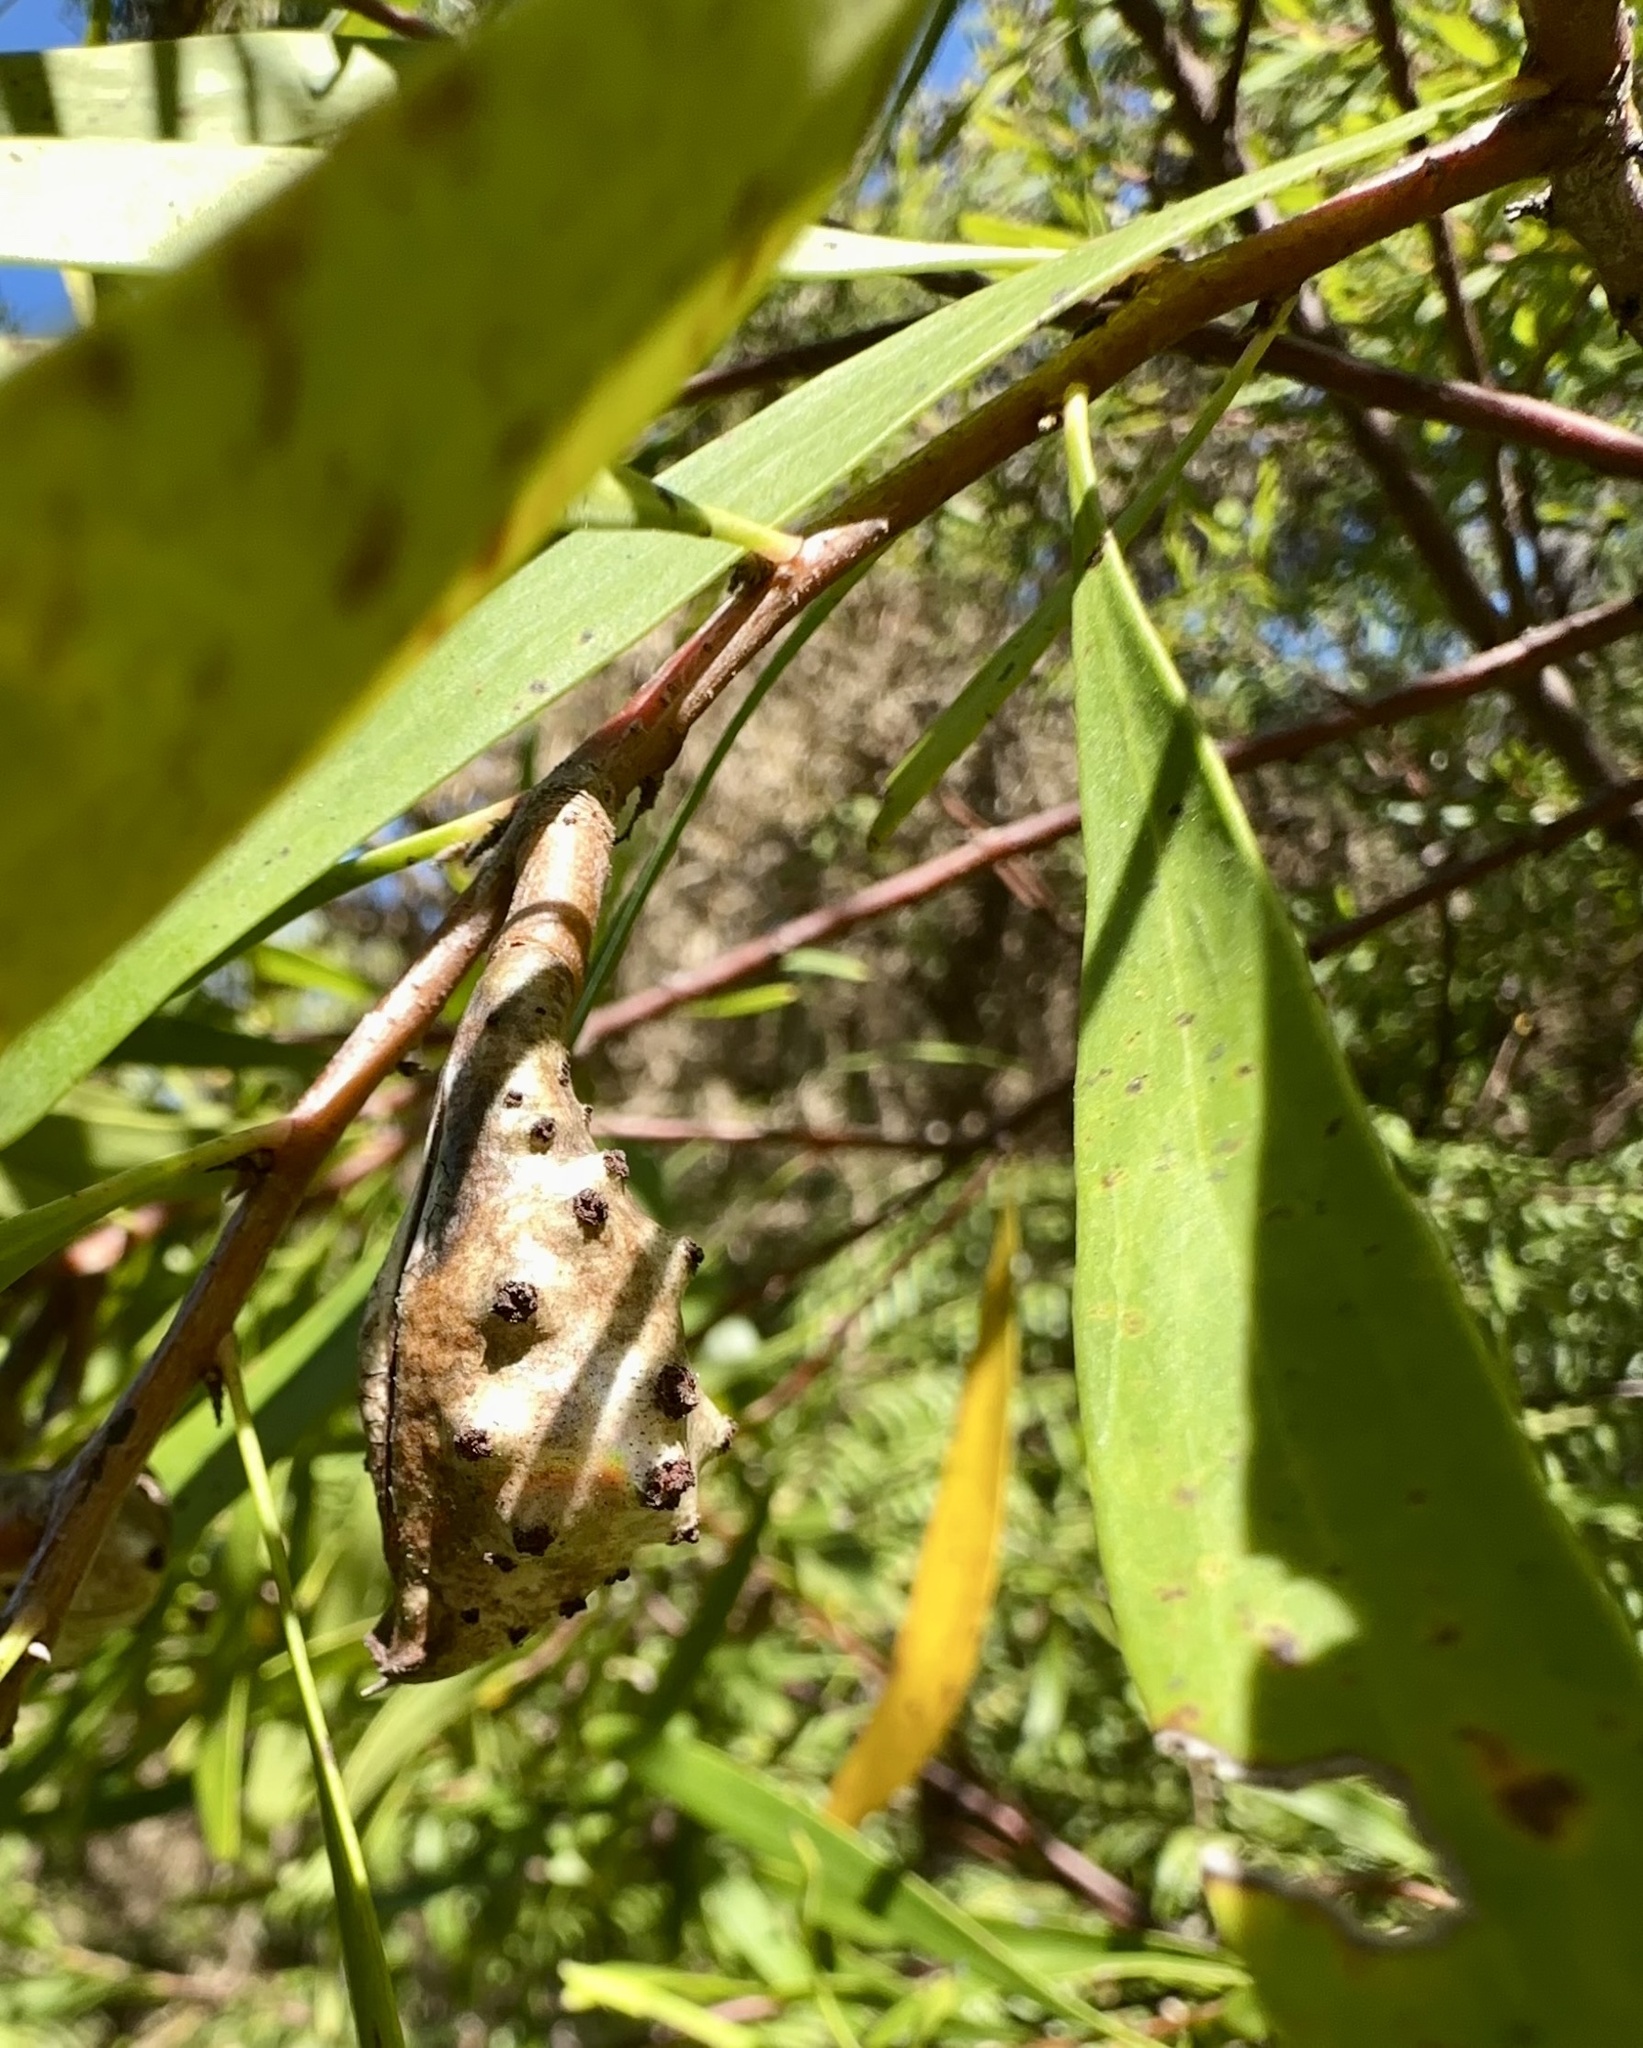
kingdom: Plantae
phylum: Tracheophyta
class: Magnoliopsida
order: Proteales
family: Proteaceae
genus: Hakea
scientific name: Hakea salicifolia
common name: Willow hakea
